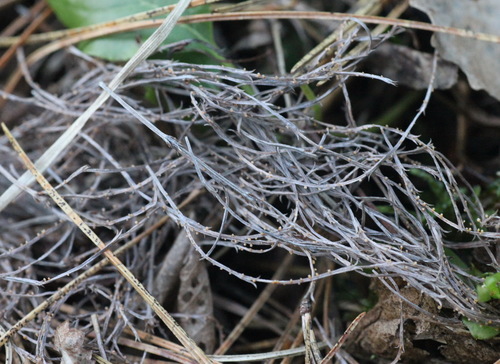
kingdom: Fungi
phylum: Ascomycota
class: Leotiomycetes
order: Helotiales
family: Helotiaceae
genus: Stamnaria
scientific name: Stamnaria yugrana
